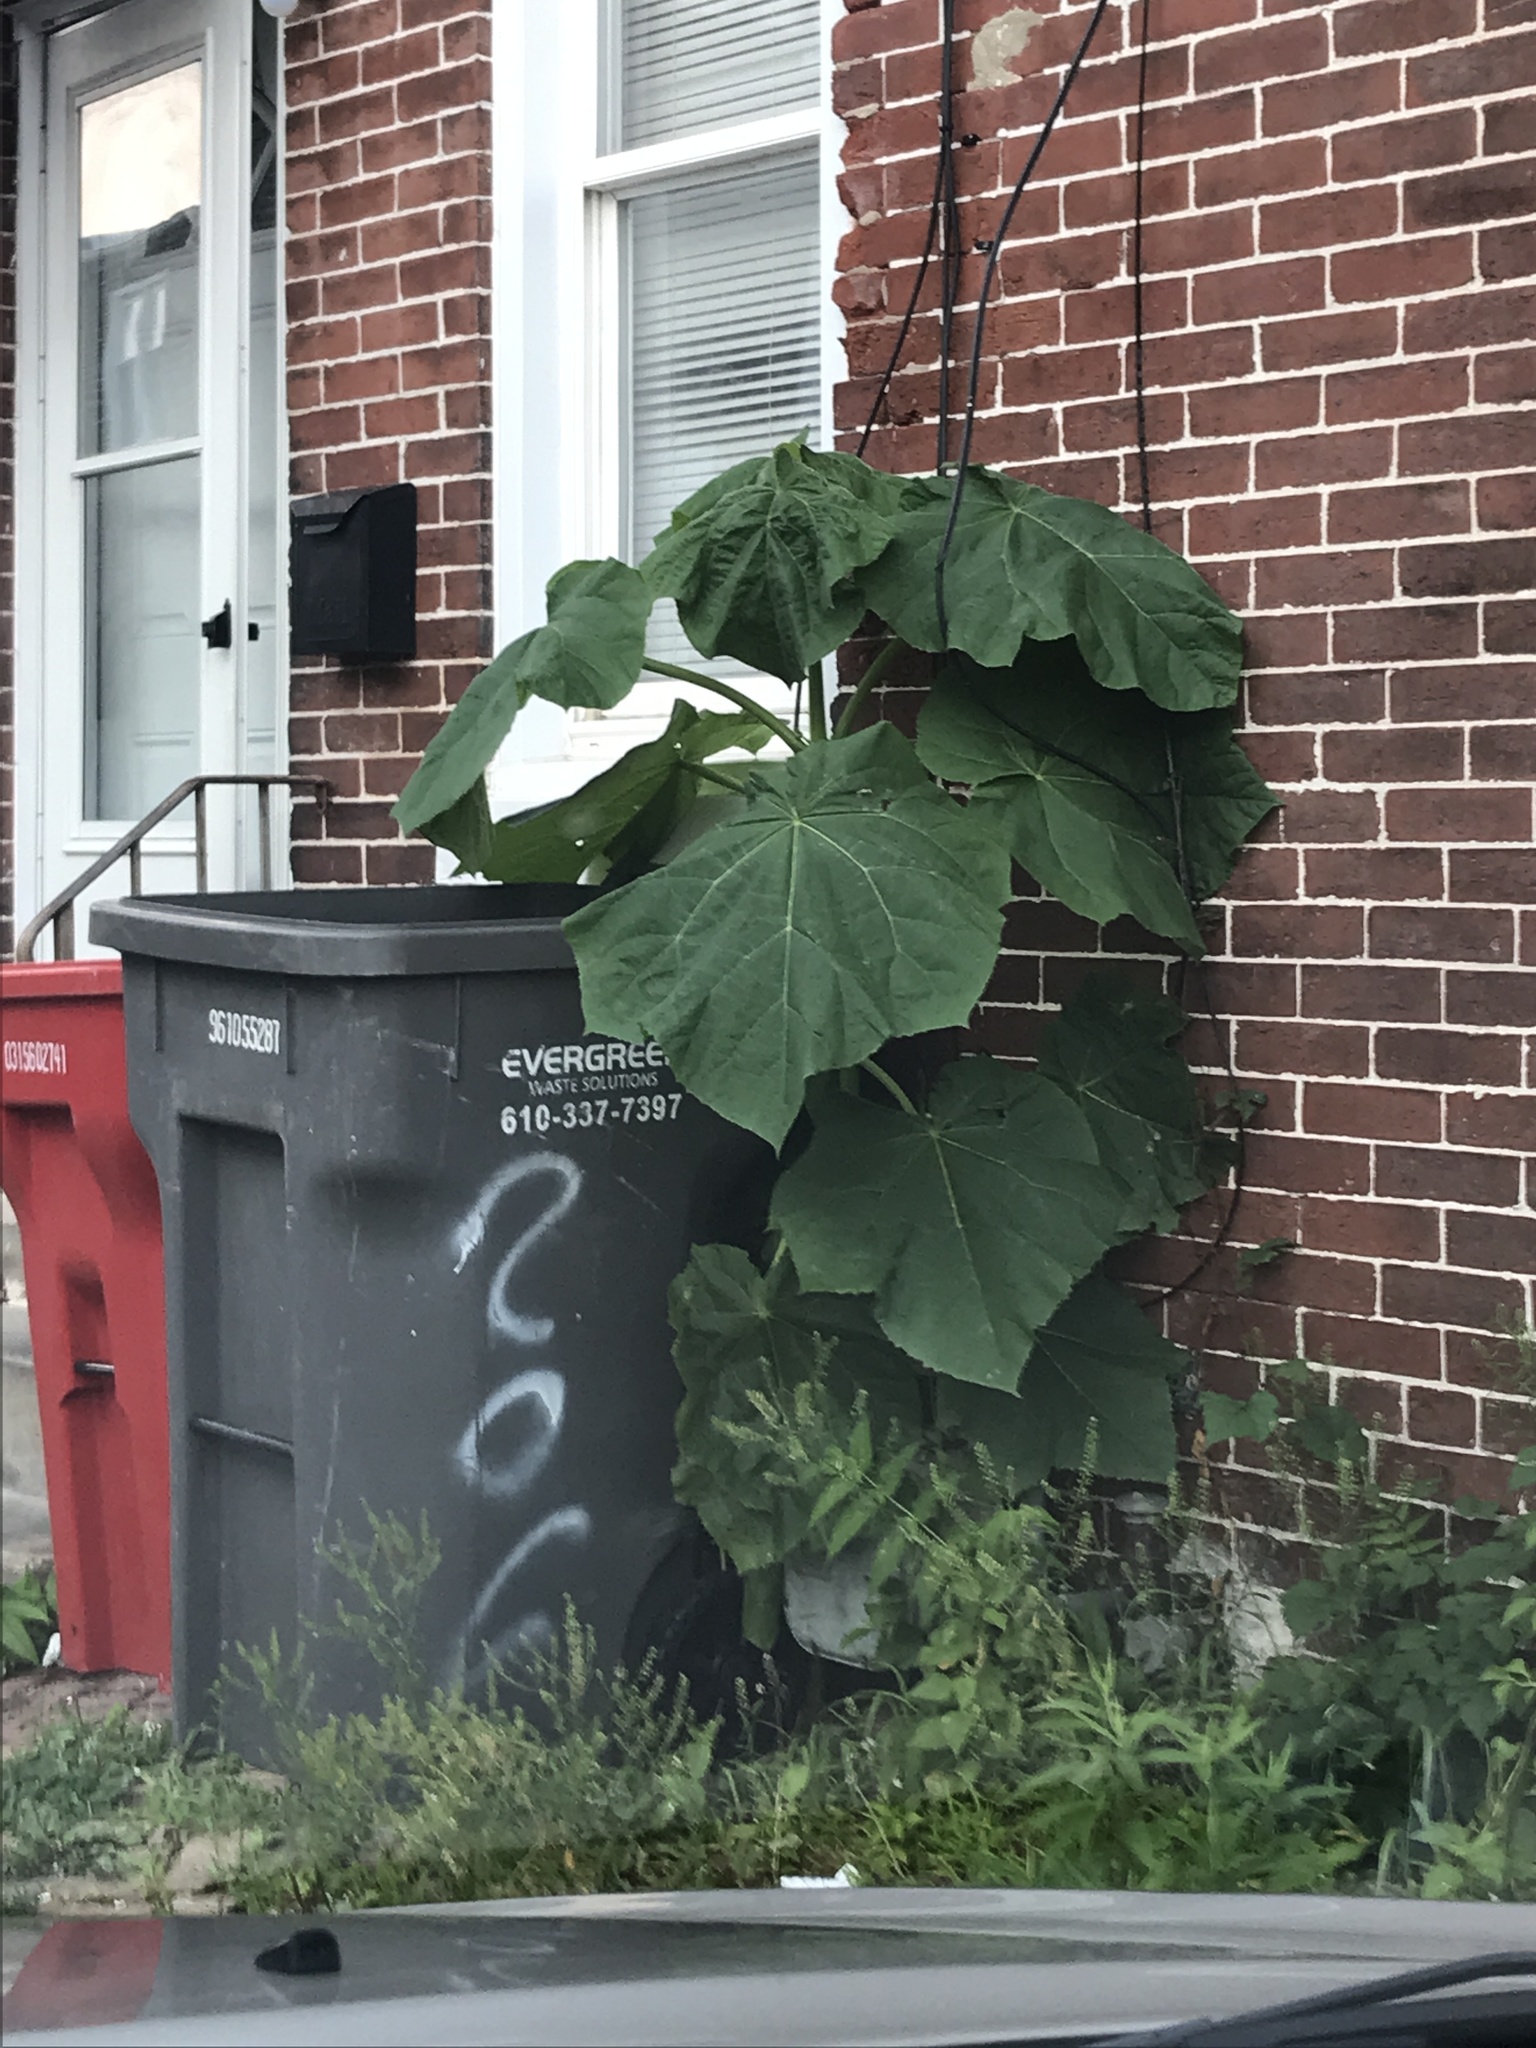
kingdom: Plantae
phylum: Tracheophyta
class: Magnoliopsida
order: Lamiales
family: Paulowniaceae
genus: Paulownia
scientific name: Paulownia tomentosa
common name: Foxglove-tree
